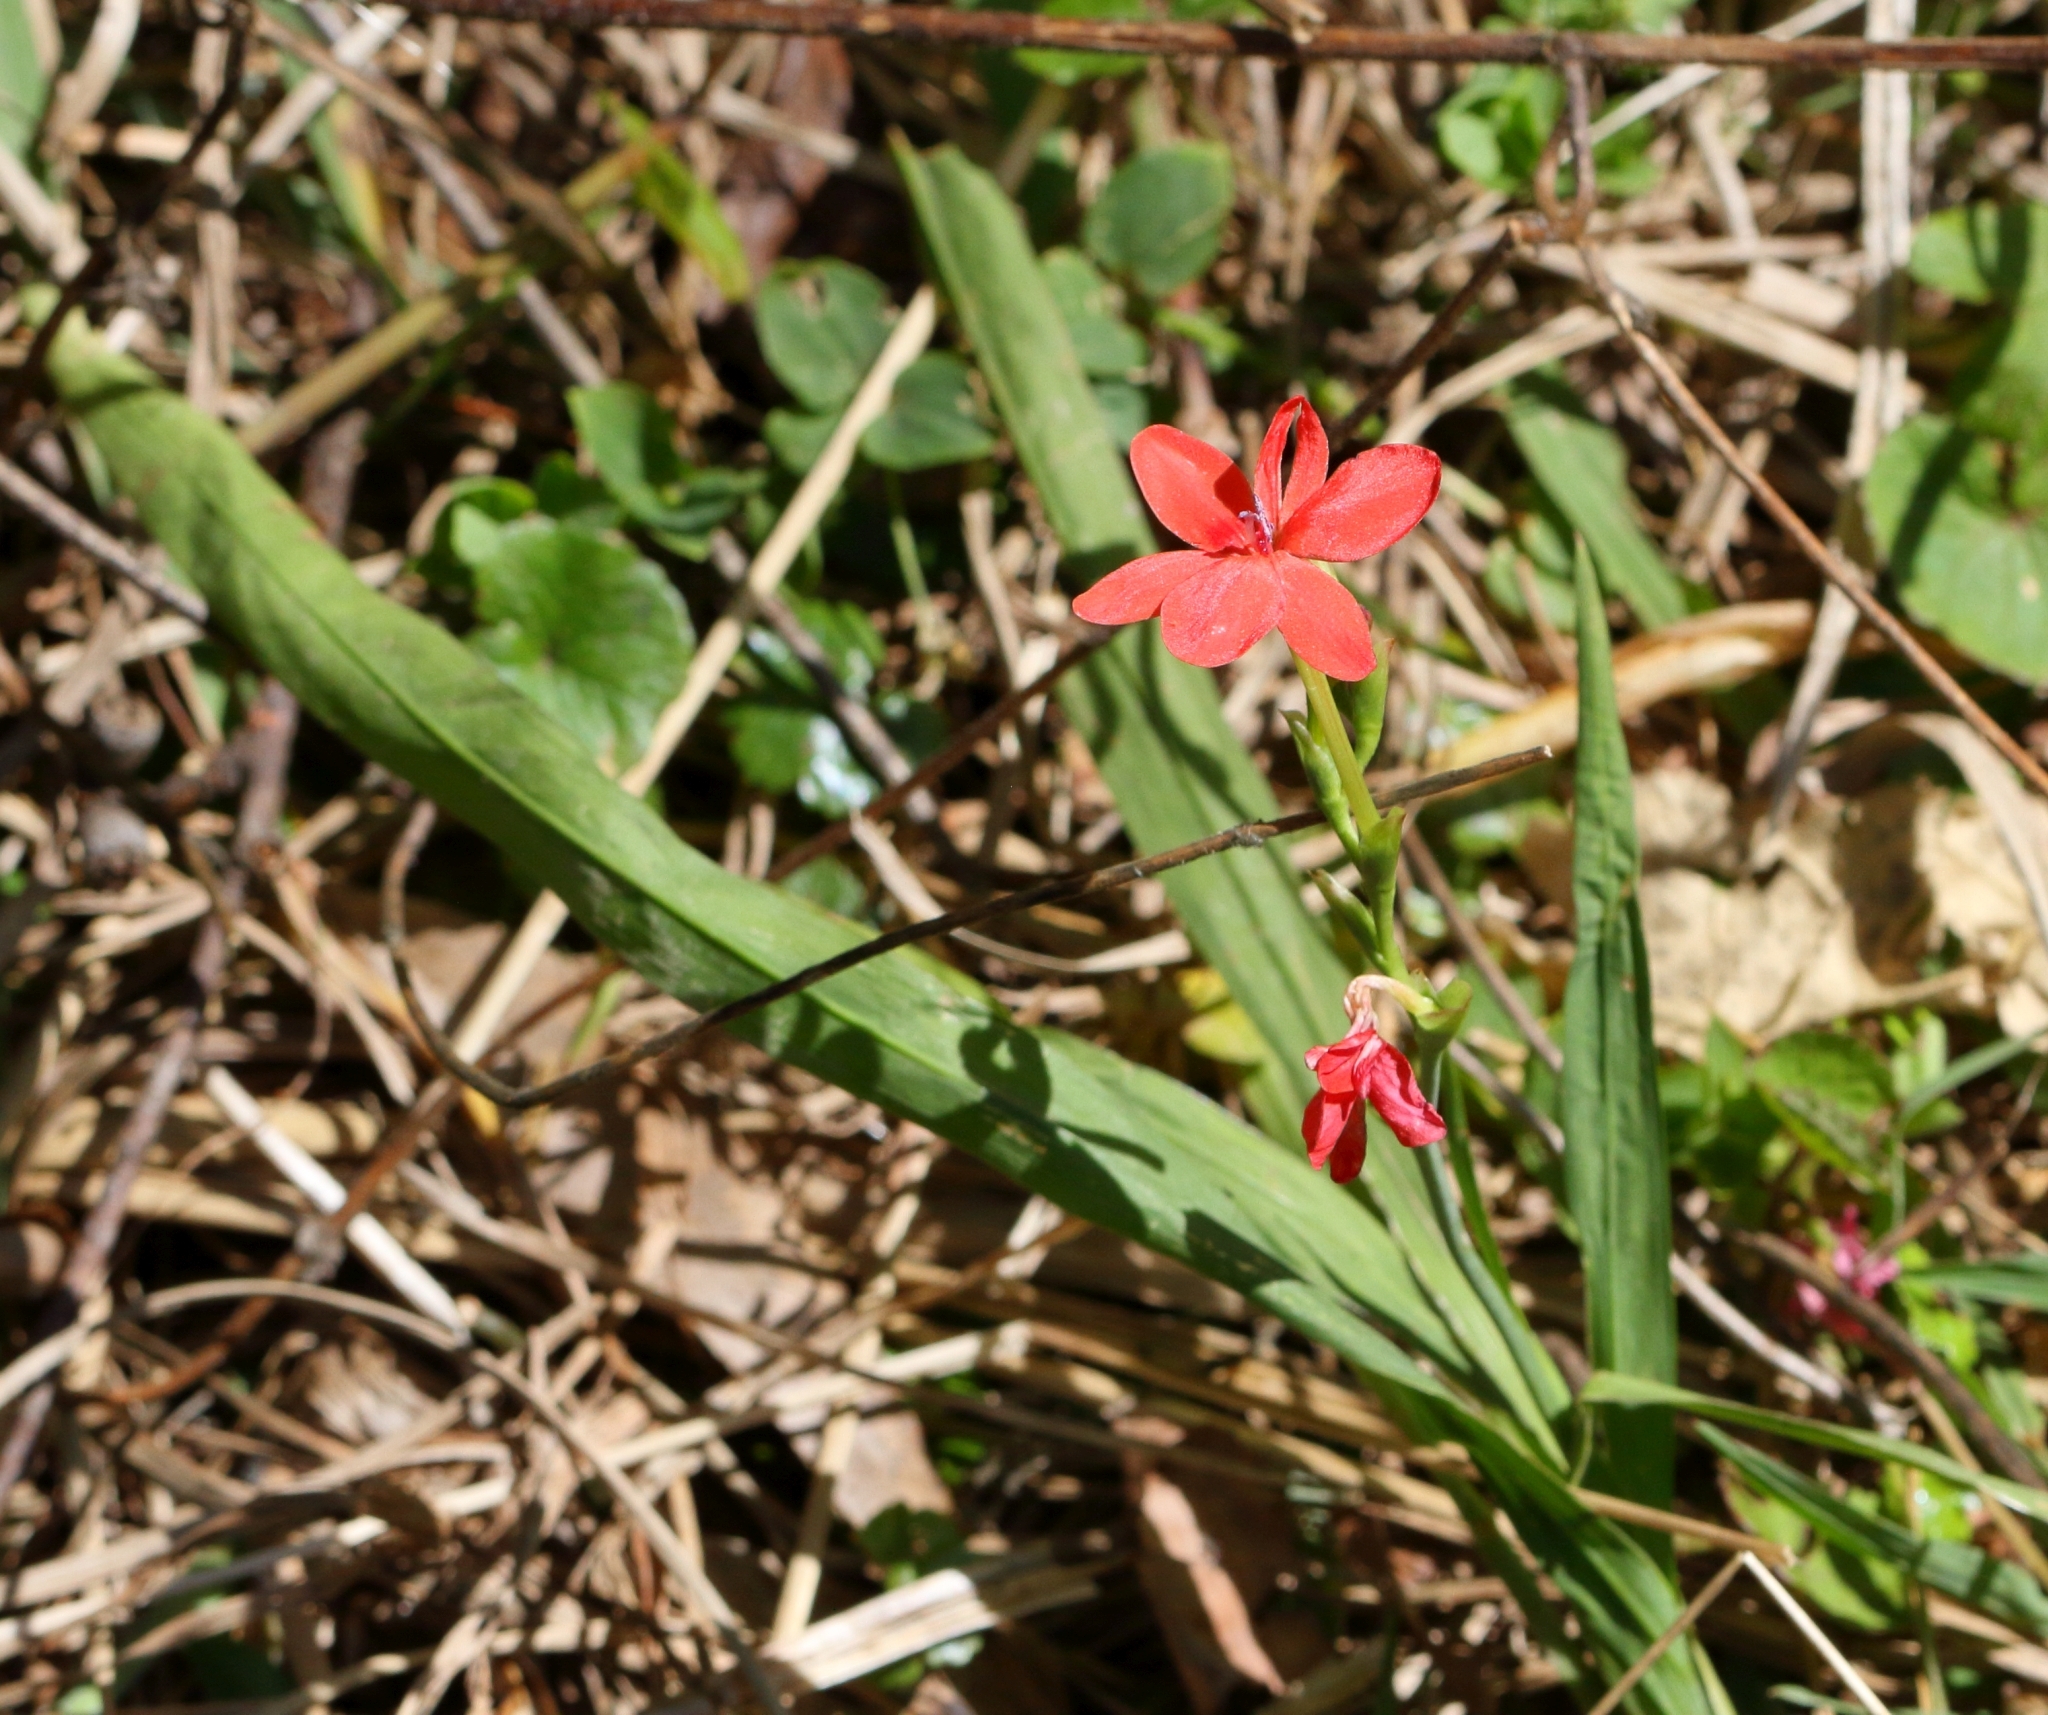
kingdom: Plantae
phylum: Tracheophyta
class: Liliopsida
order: Asparagales
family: Iridaceae
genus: Freesia
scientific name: Freesia laxa
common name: False freesia
